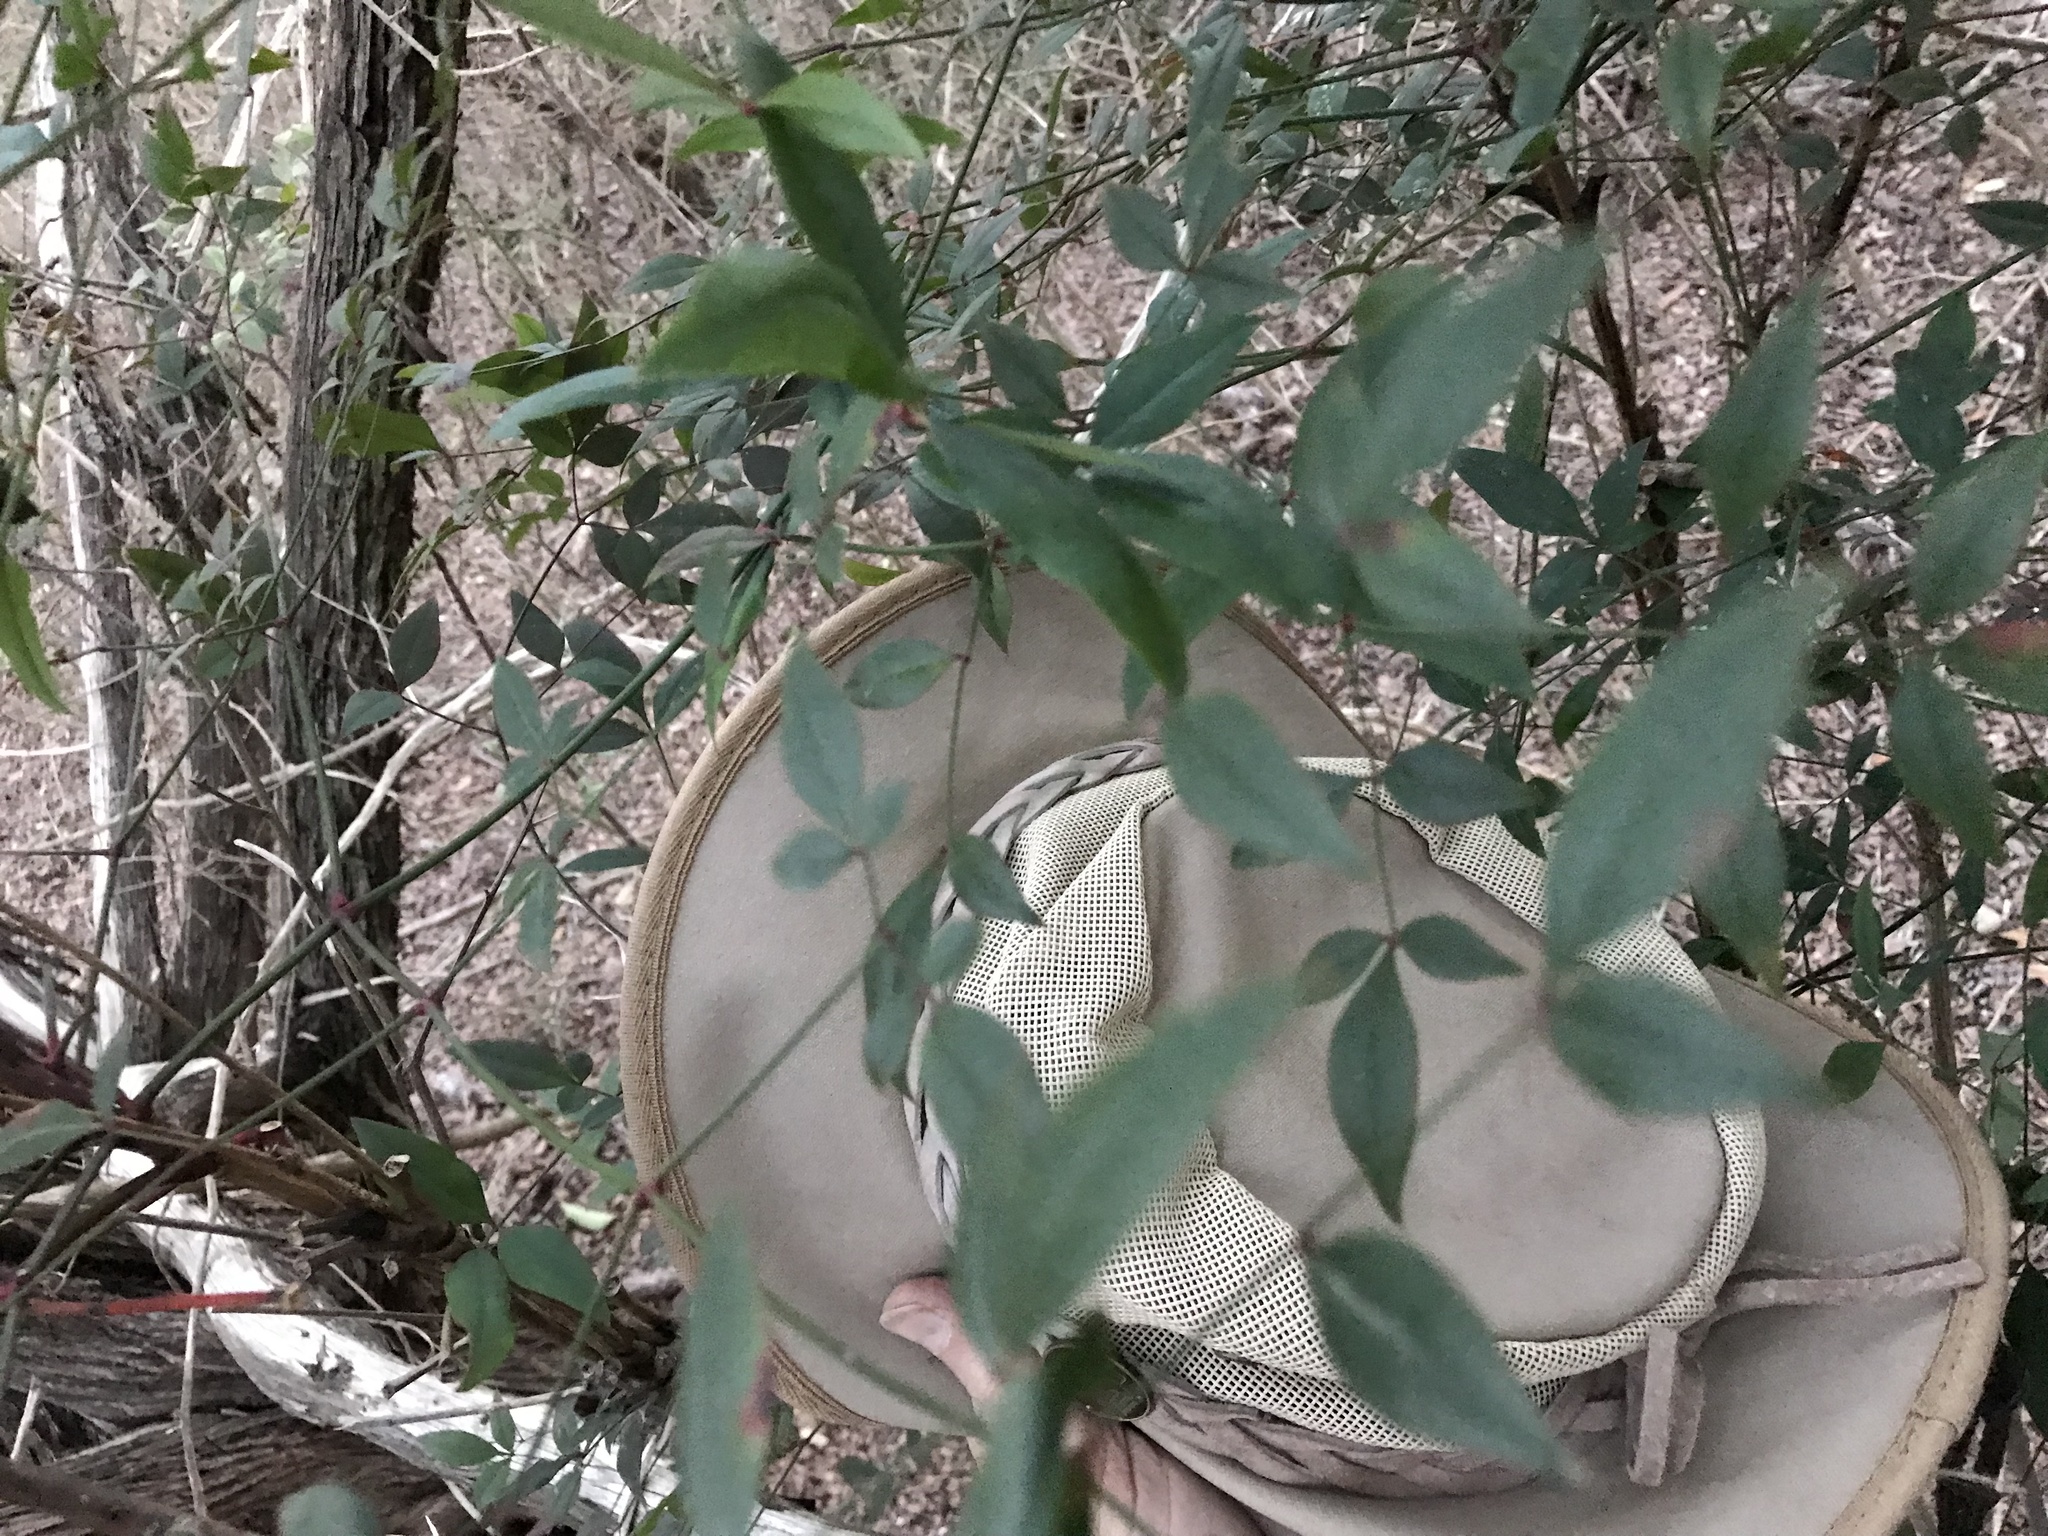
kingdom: Plantae
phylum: Tracheophyta
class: Magnoliopsida
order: Ranunculales
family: Berberidaceae
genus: Nandina
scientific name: Nandina domestica
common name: Sacred bamboo
